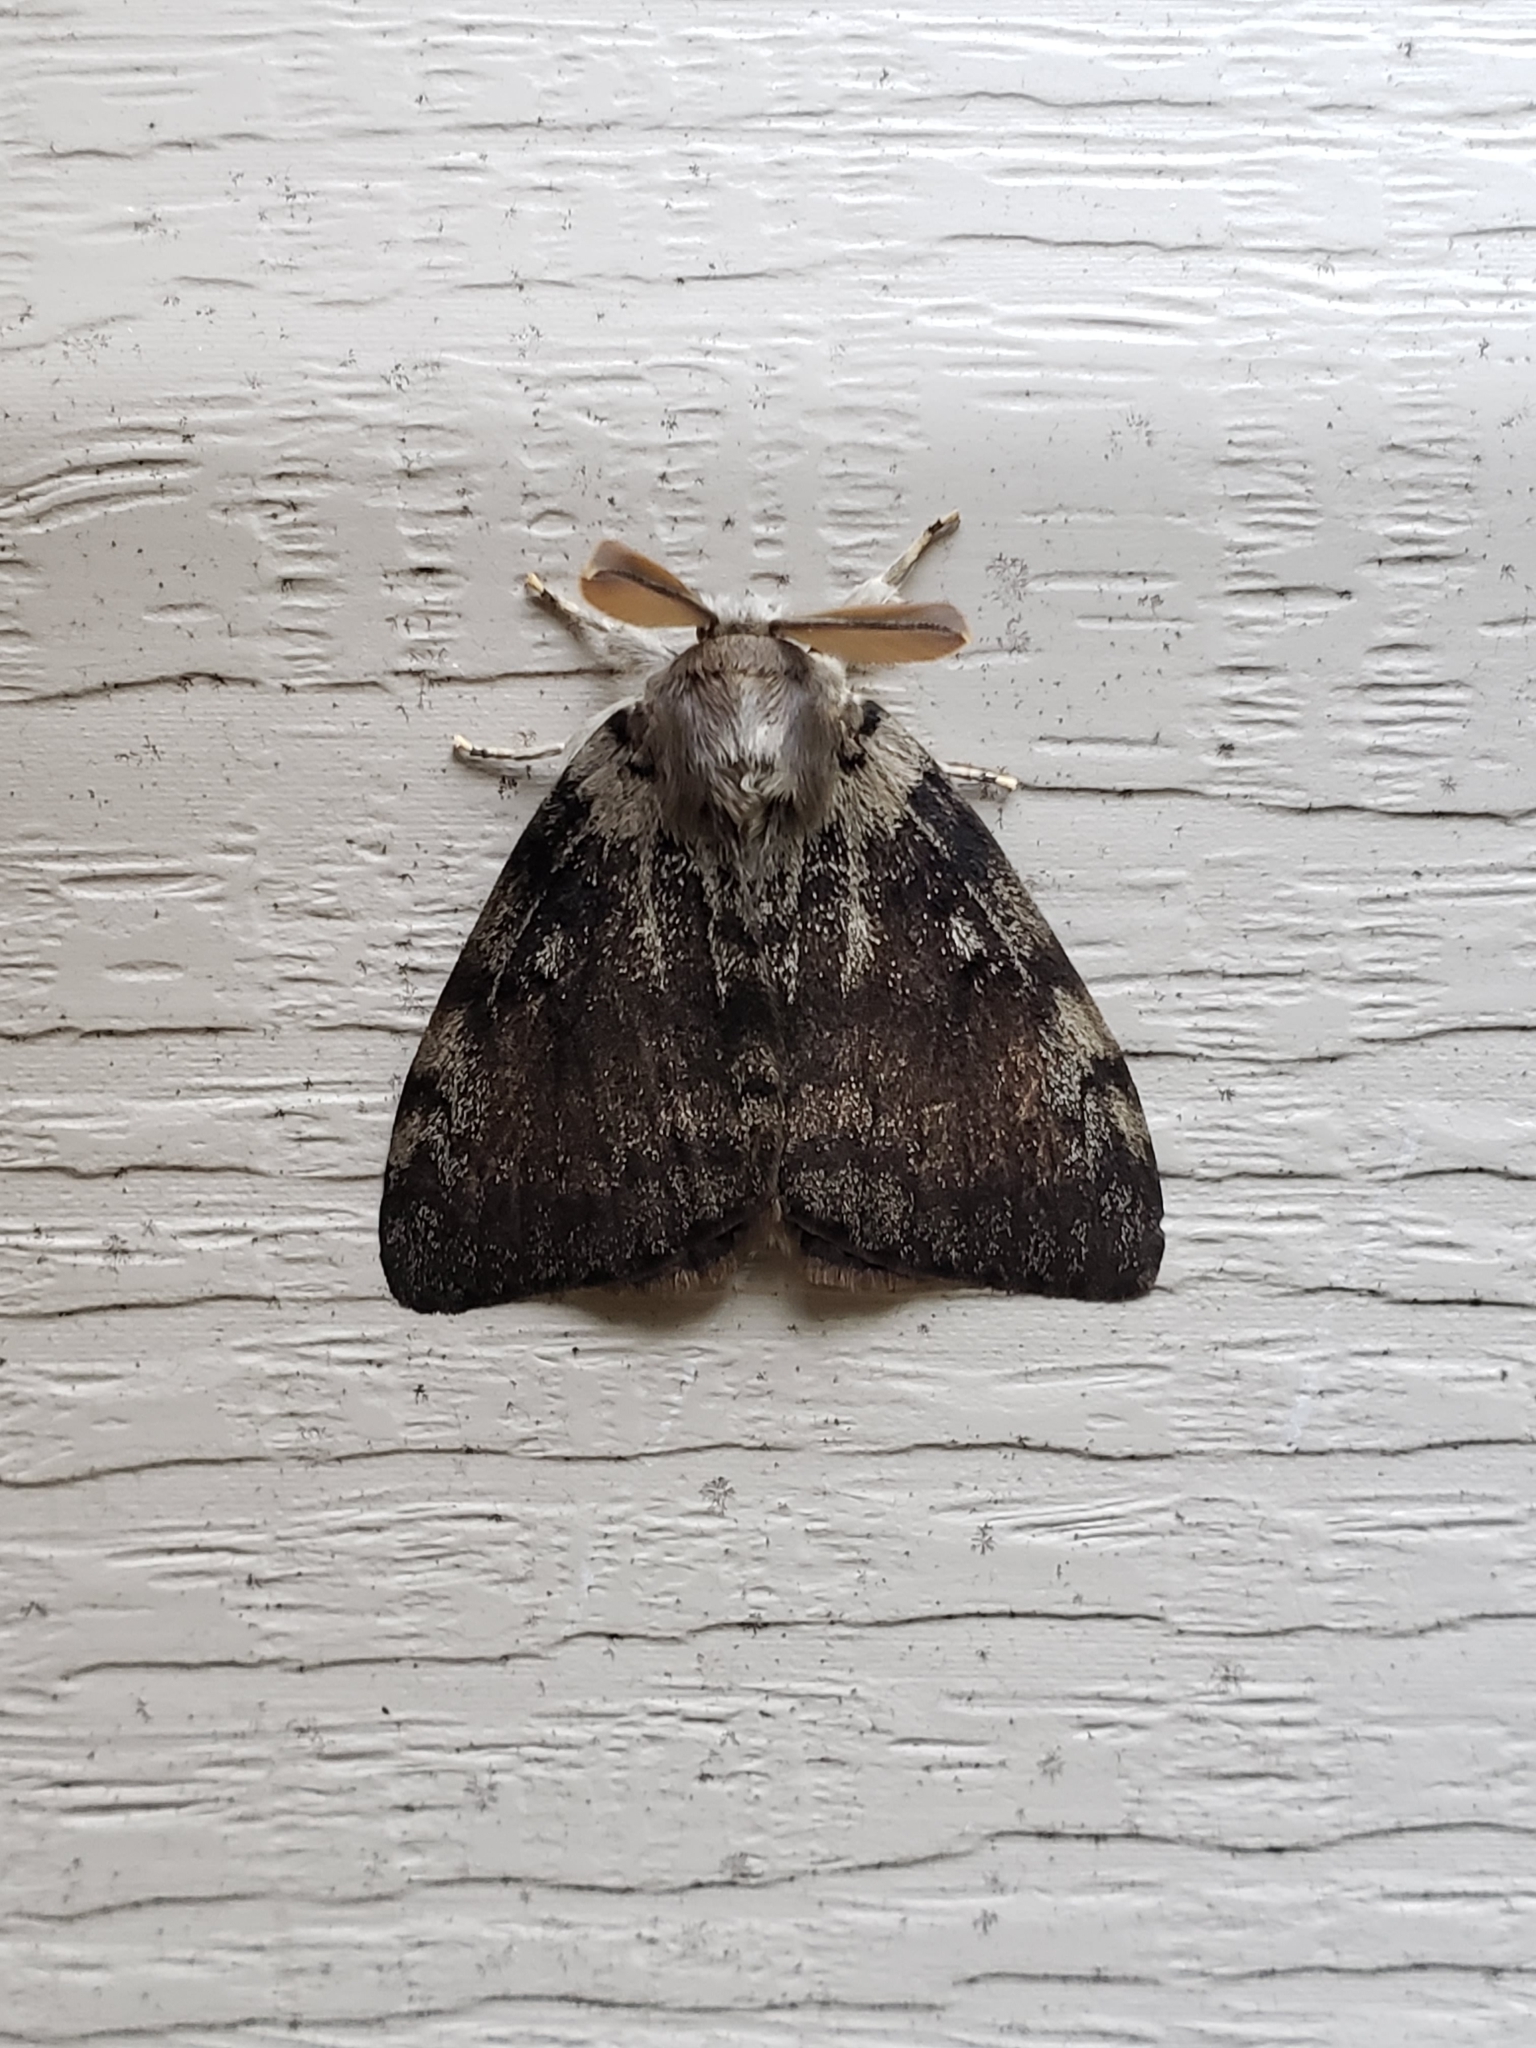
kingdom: Animalia
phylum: Arthropoda
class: Insecta
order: Lepidoptera
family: Erebidae
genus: Lymantria
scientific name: Lymantria dispar
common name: Gypsy moth
